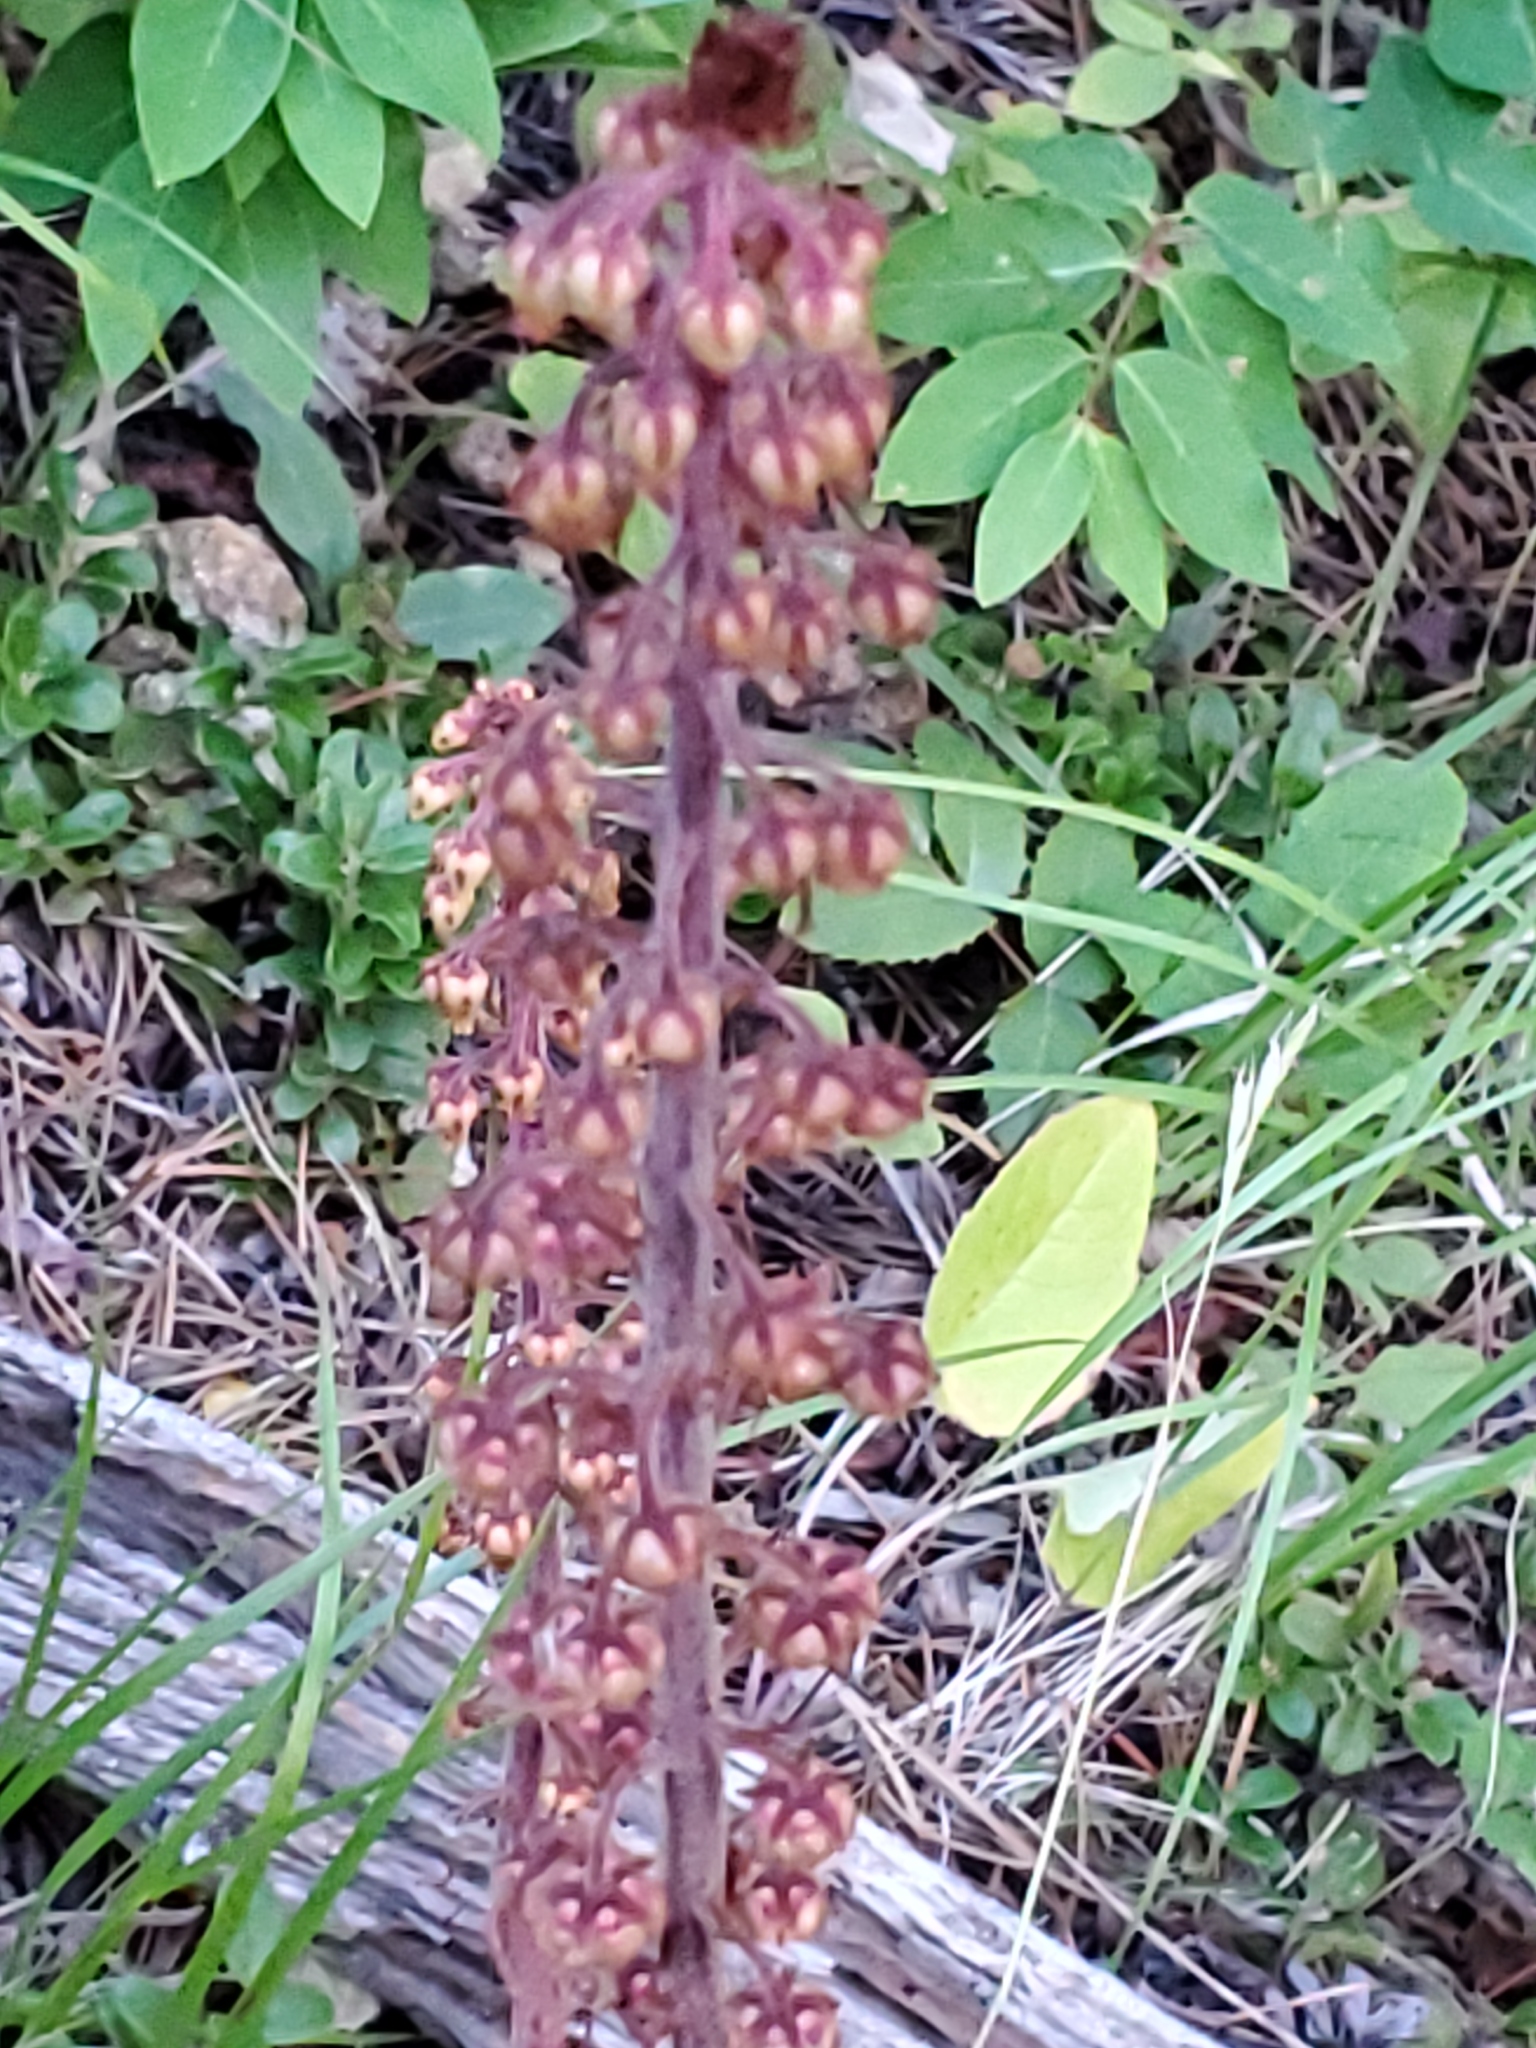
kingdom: Plantae
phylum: Tracheophyta
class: Magnoliopsida
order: Ericales
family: Ericaceae
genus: Pterospora
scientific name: Pterospora andromedea
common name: Giant bird's-nest
